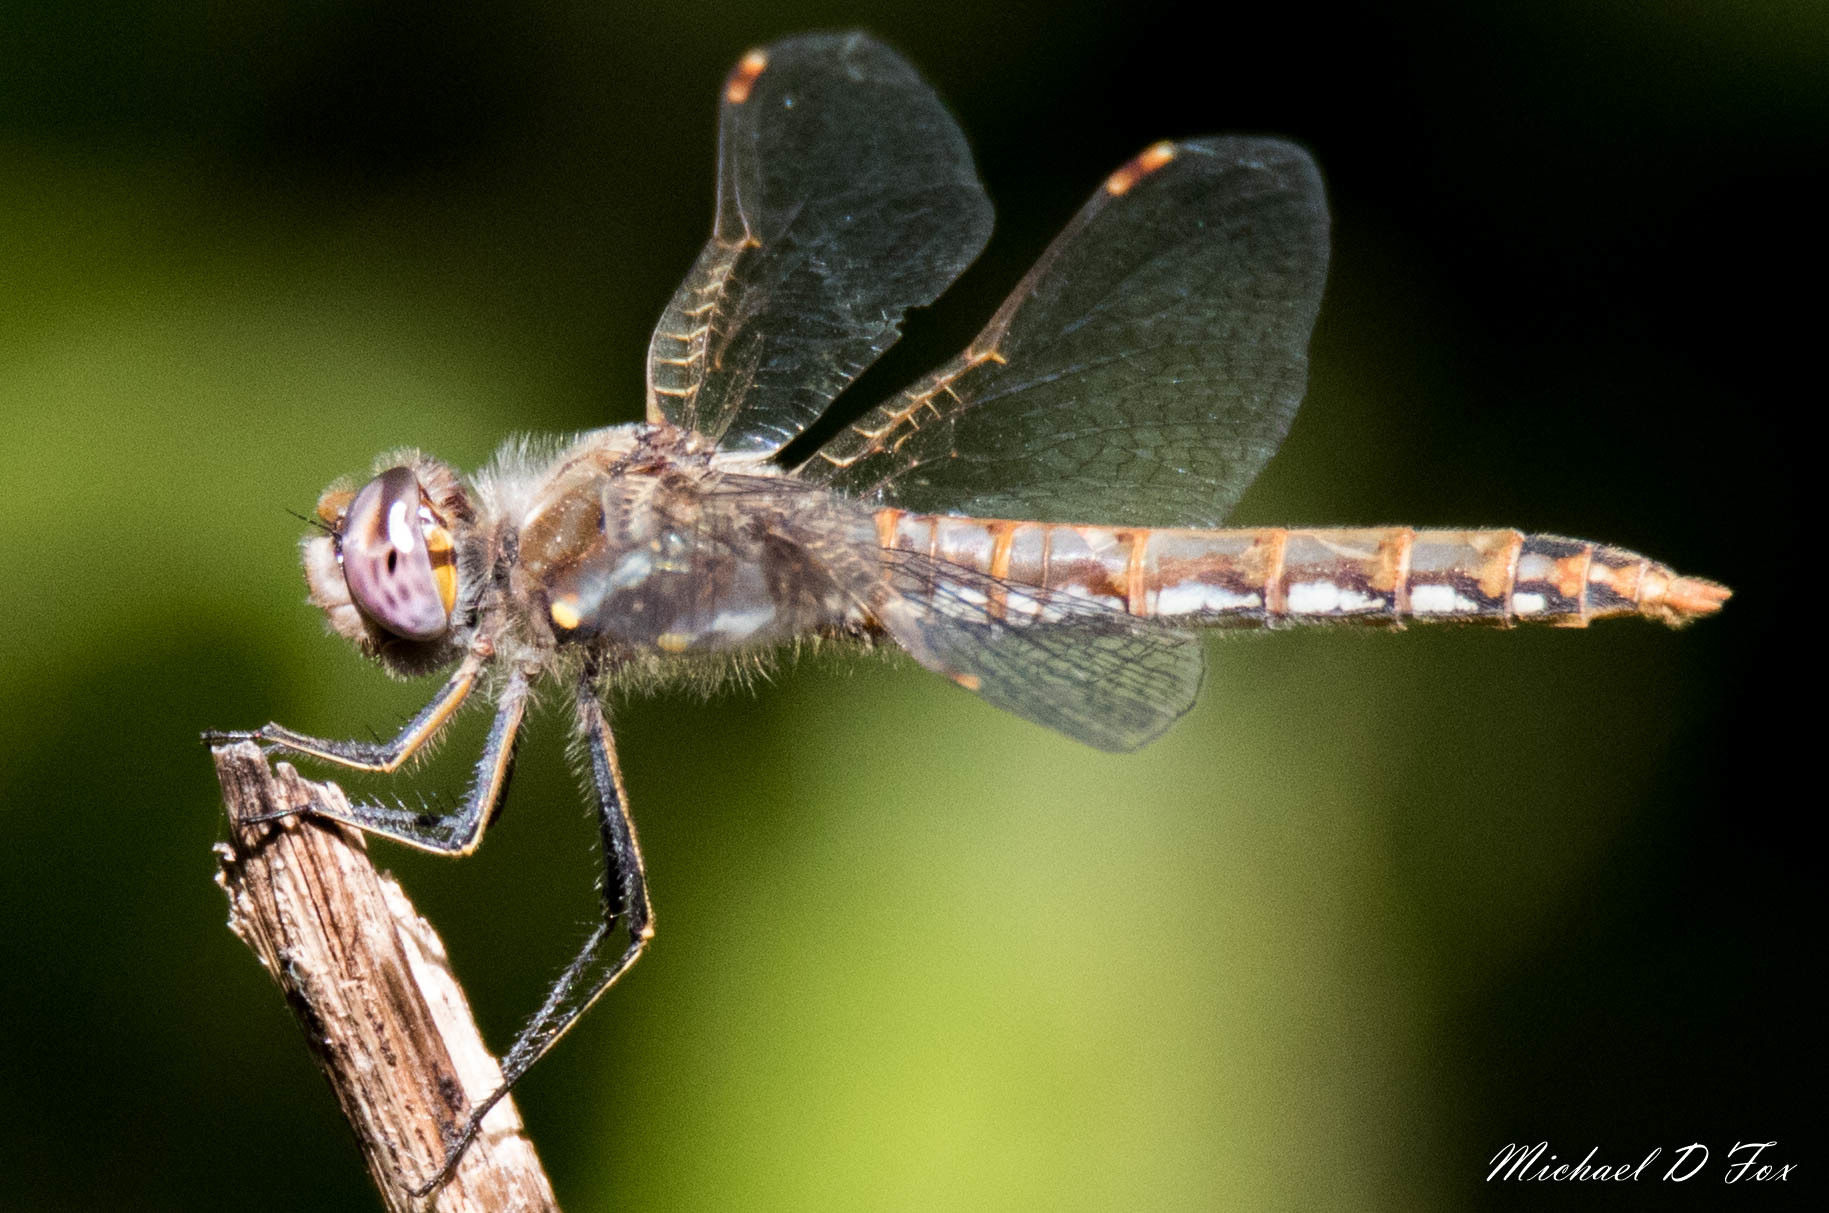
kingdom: Animalia
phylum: Arthropoda
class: Insecta
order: Odonata
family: Libellulidae
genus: Sympetrum
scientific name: Sympetrum corruptum
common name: Variegated meadowhawk
